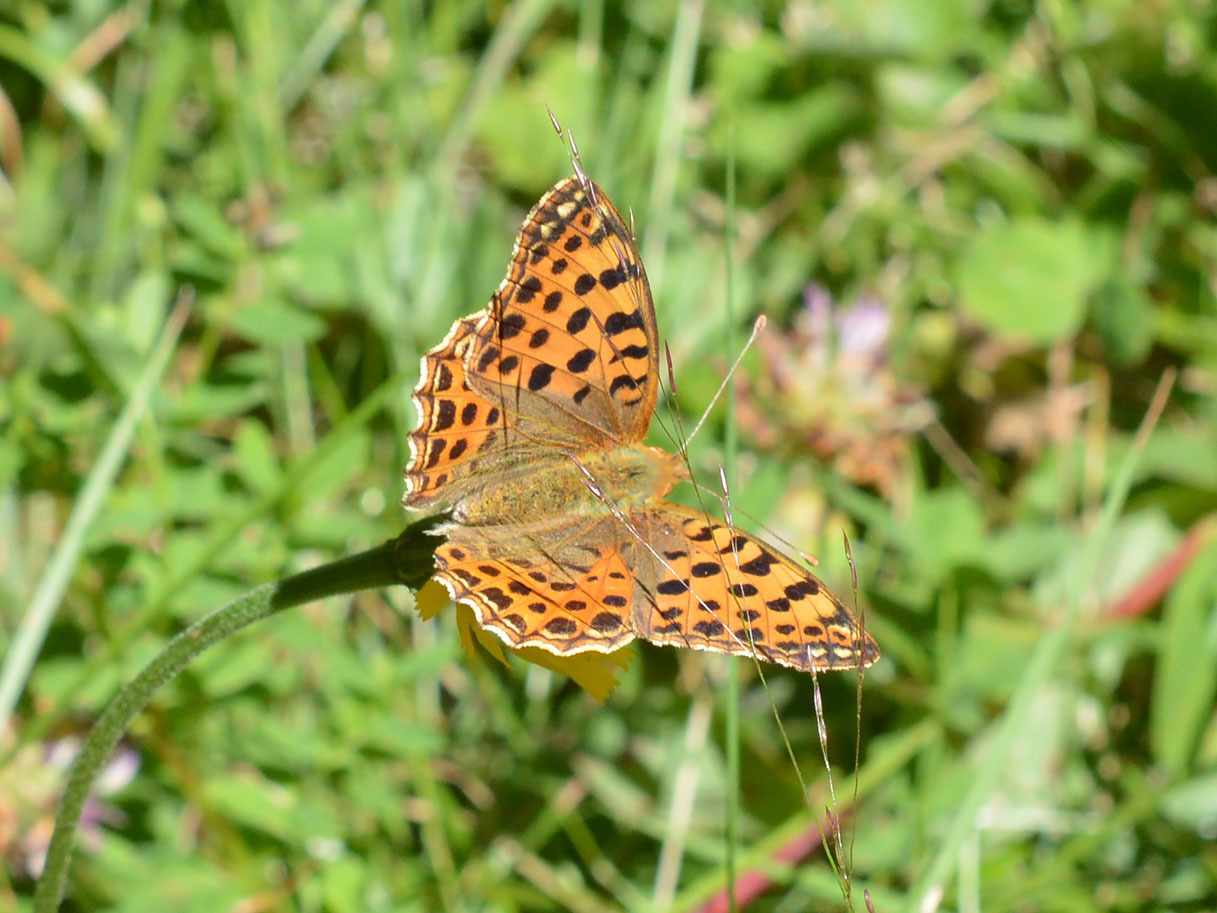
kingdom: Animalia
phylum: Arthropoda
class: Insecta
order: Lepidoptera
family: Nymphalidae
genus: Issoria
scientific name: Issoria lathonia
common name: Queen of spain fritillary
